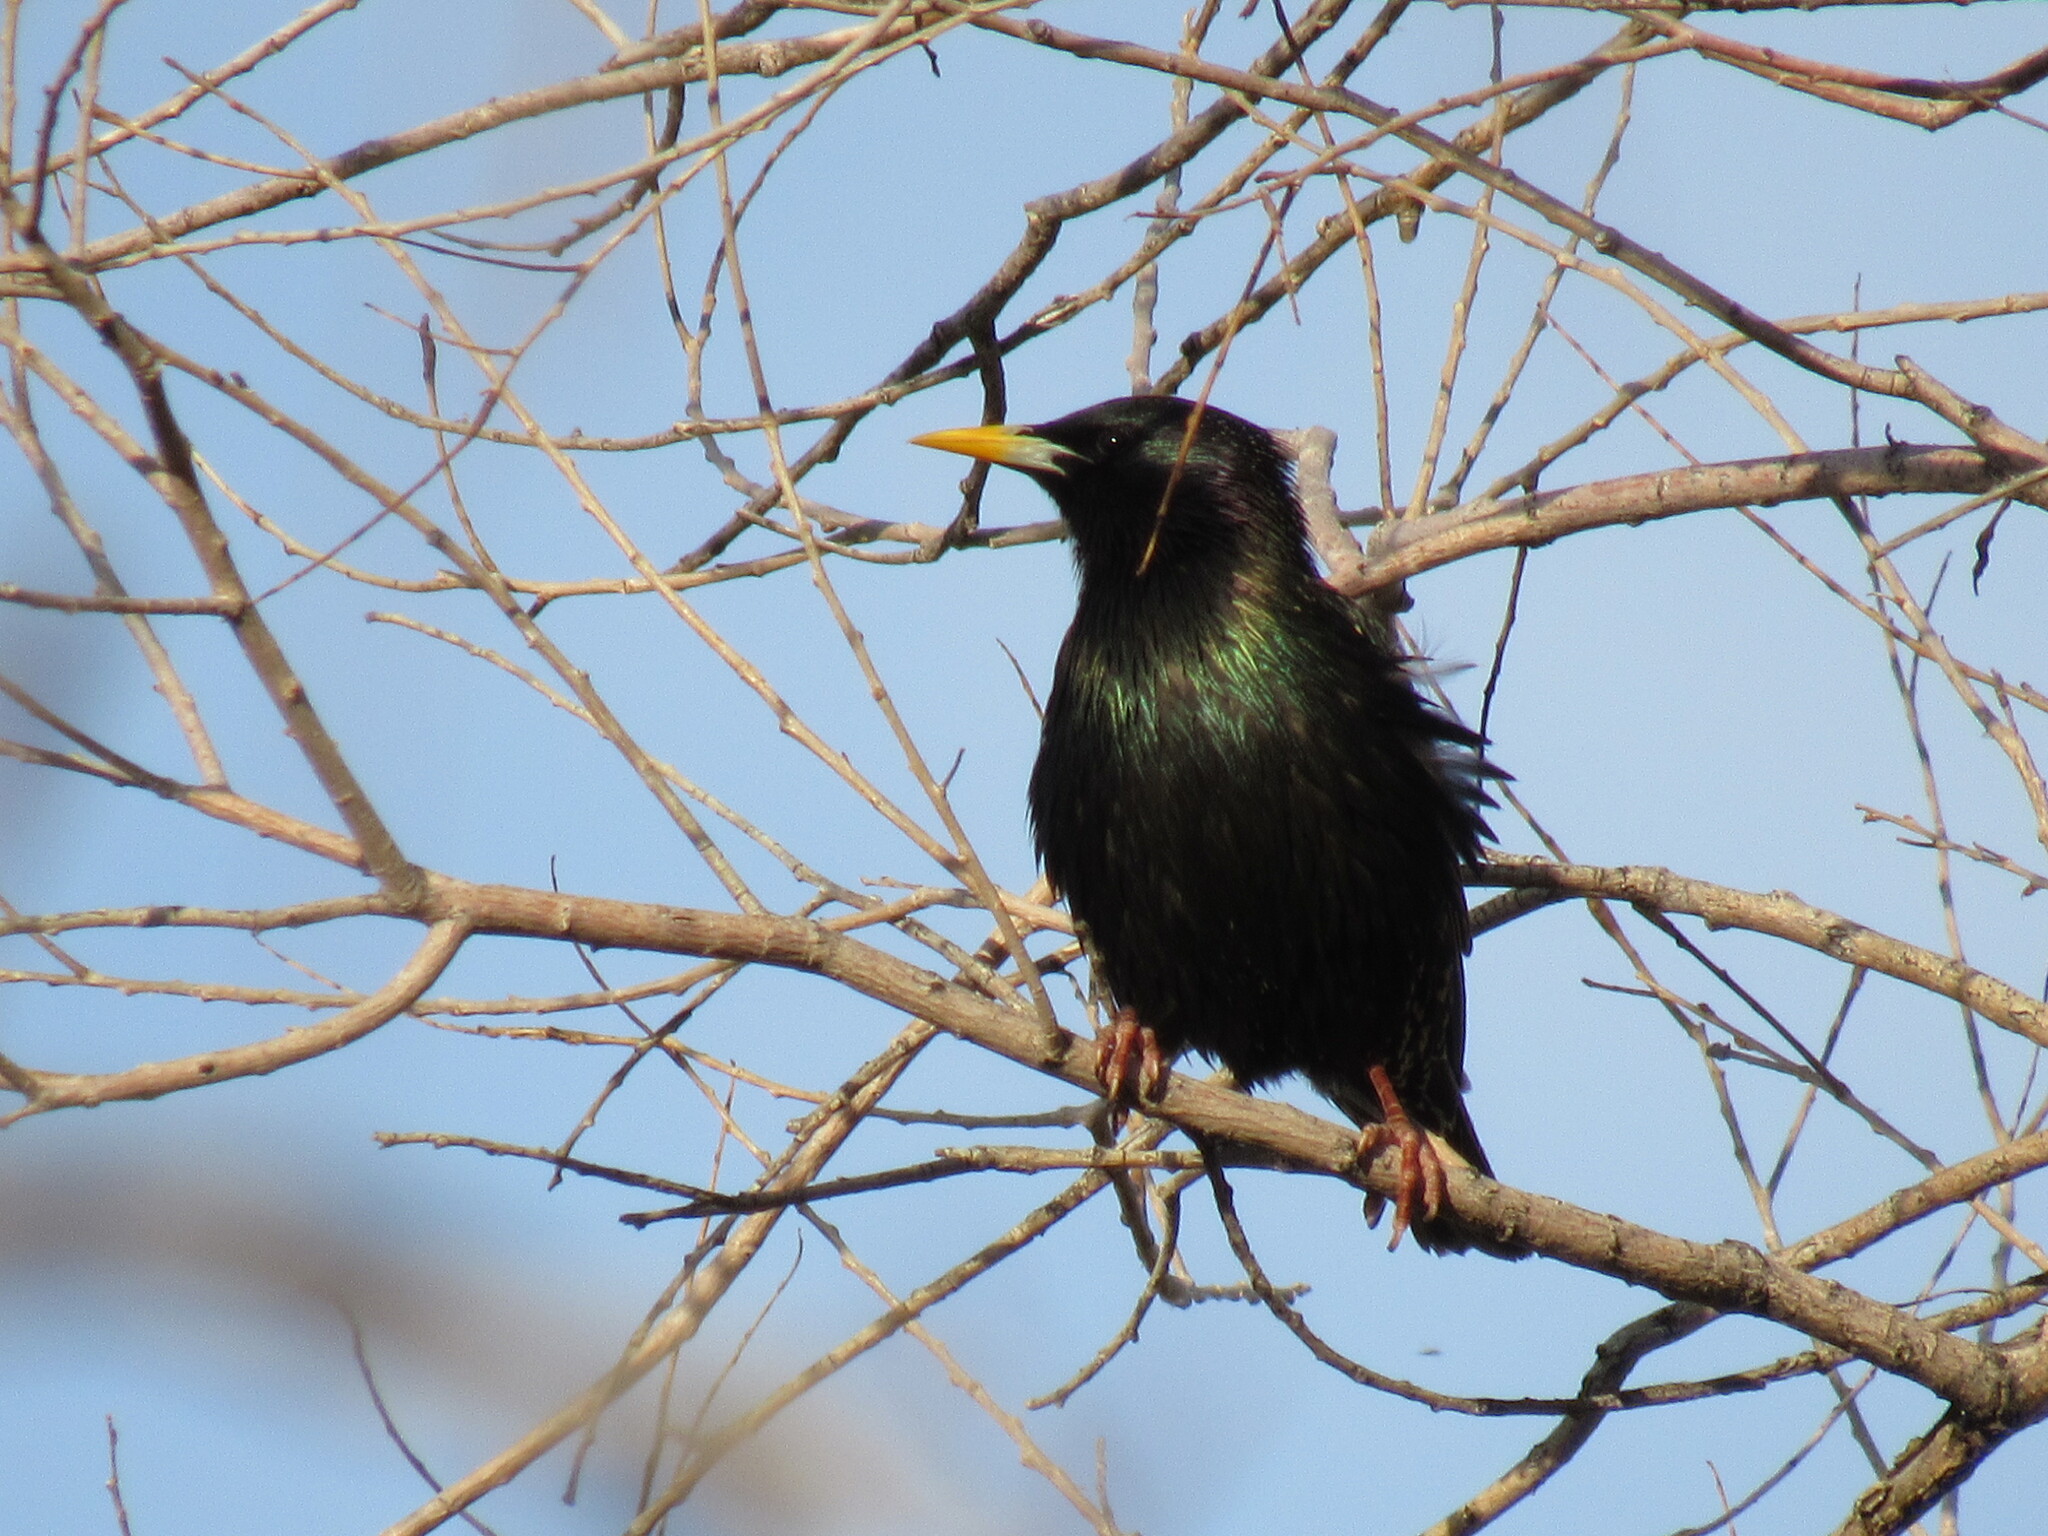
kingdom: Animalia
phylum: Chordata
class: Aves
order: Passeriformes
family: Sturnidae
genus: Sturnus
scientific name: Sturnus vulgaris
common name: Common starling
